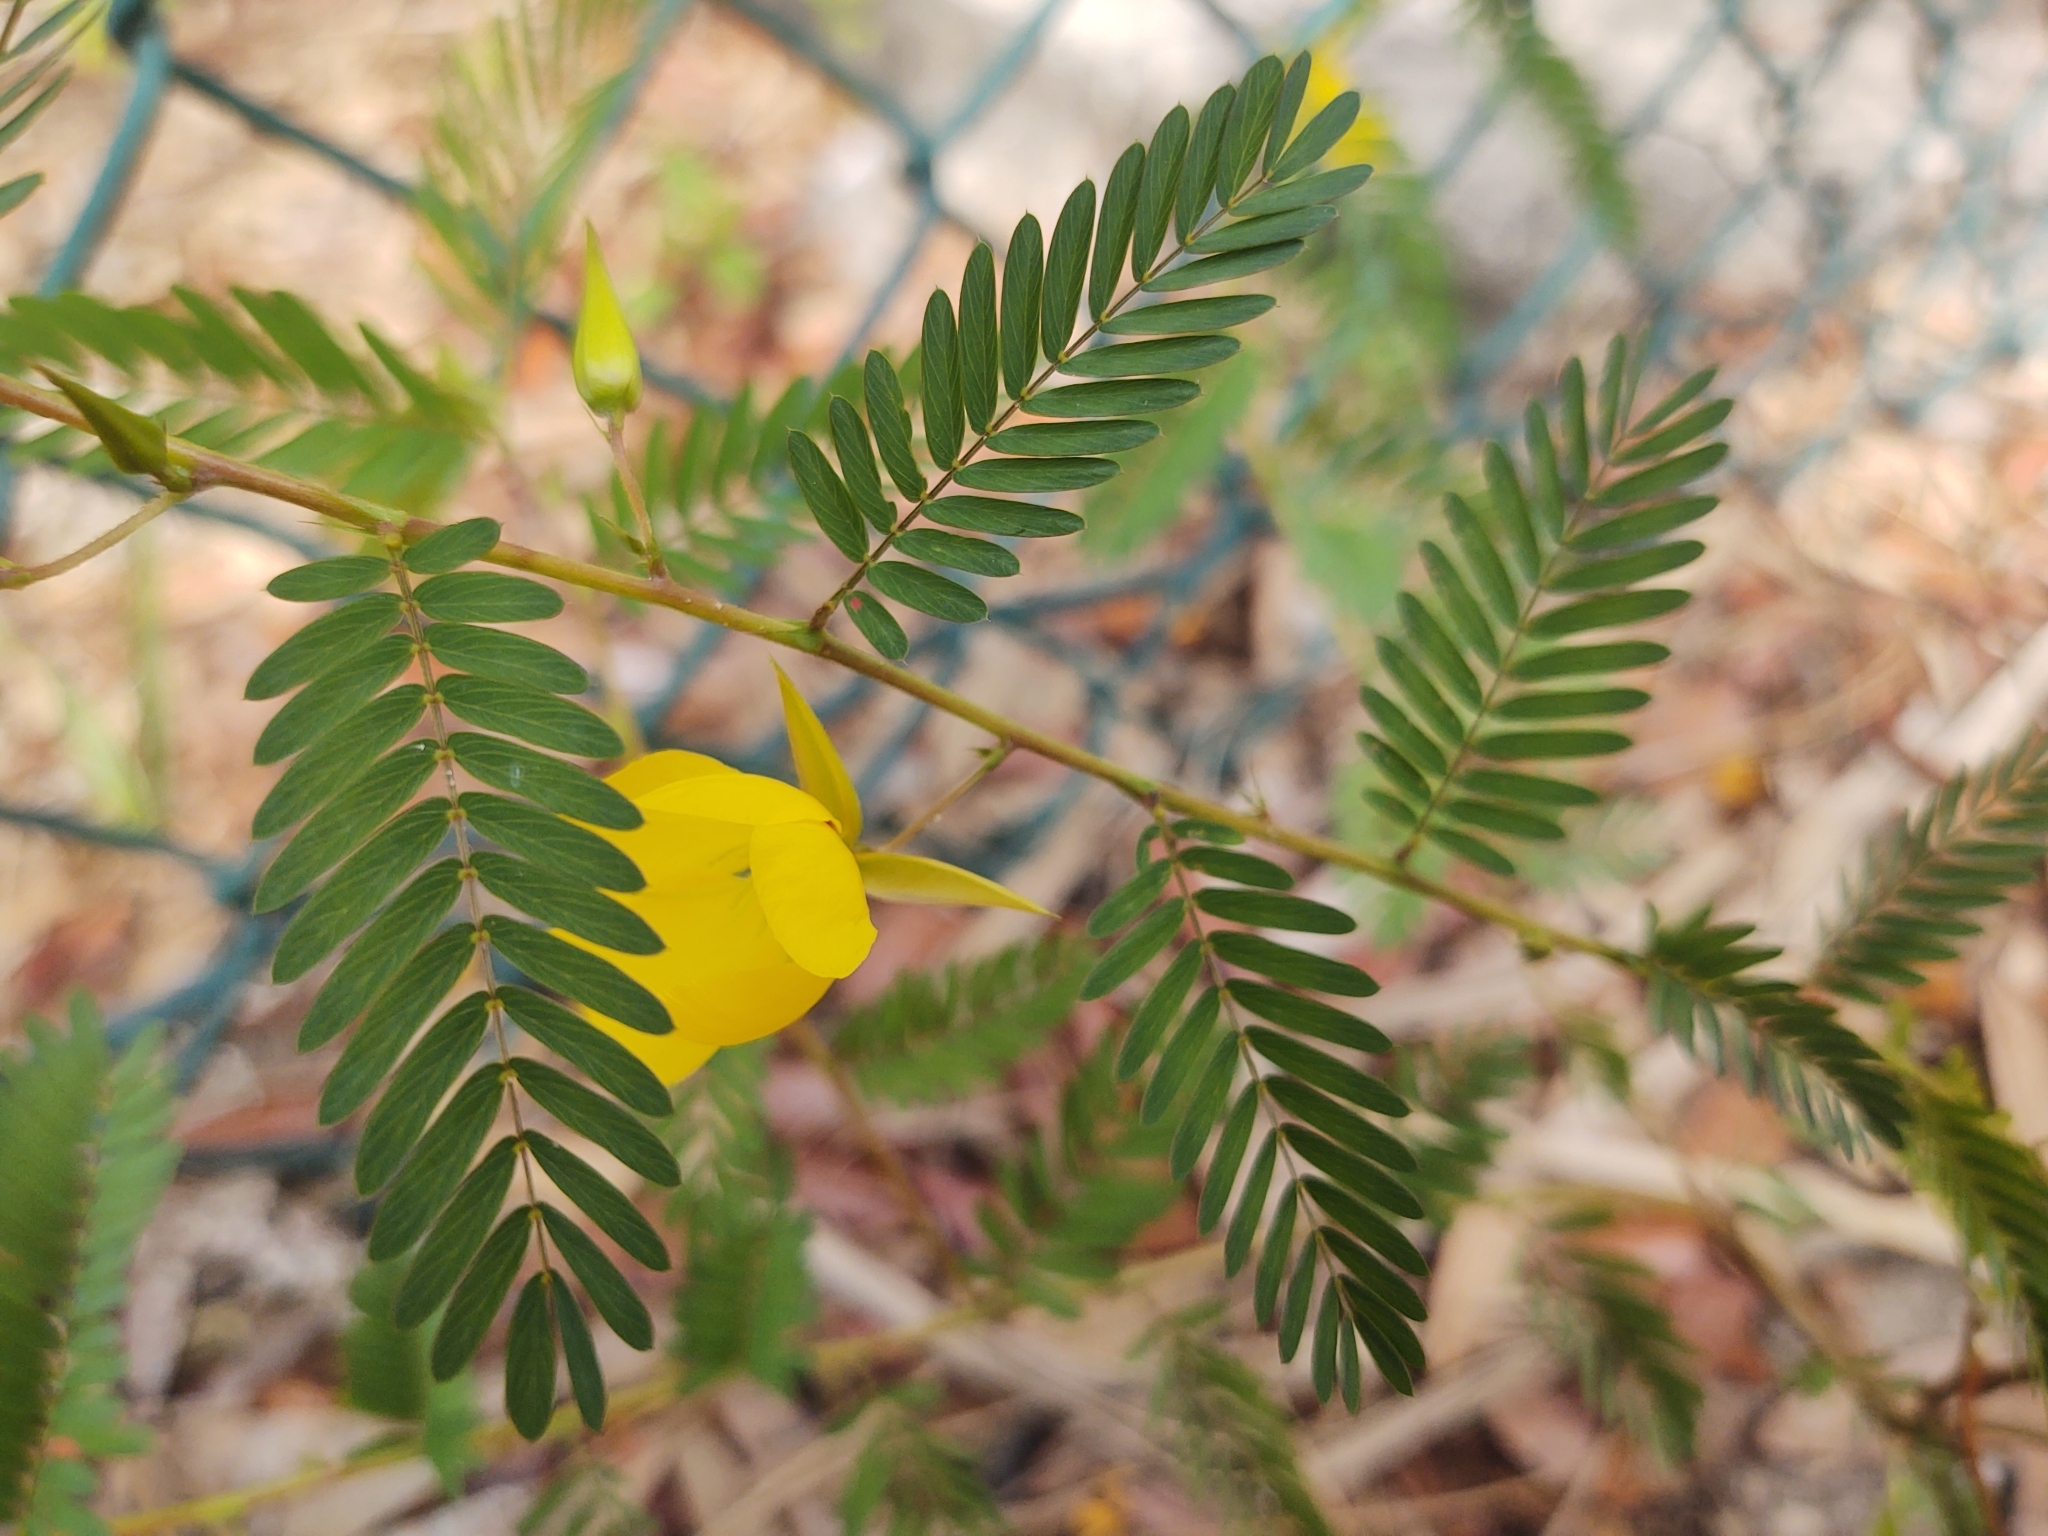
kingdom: Plantae
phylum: Tracheophyta
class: Magnoliopsida
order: Fabales
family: Fabaceae
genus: Chamaecrista
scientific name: Chamaecrista fasciculata
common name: Golden cassia
